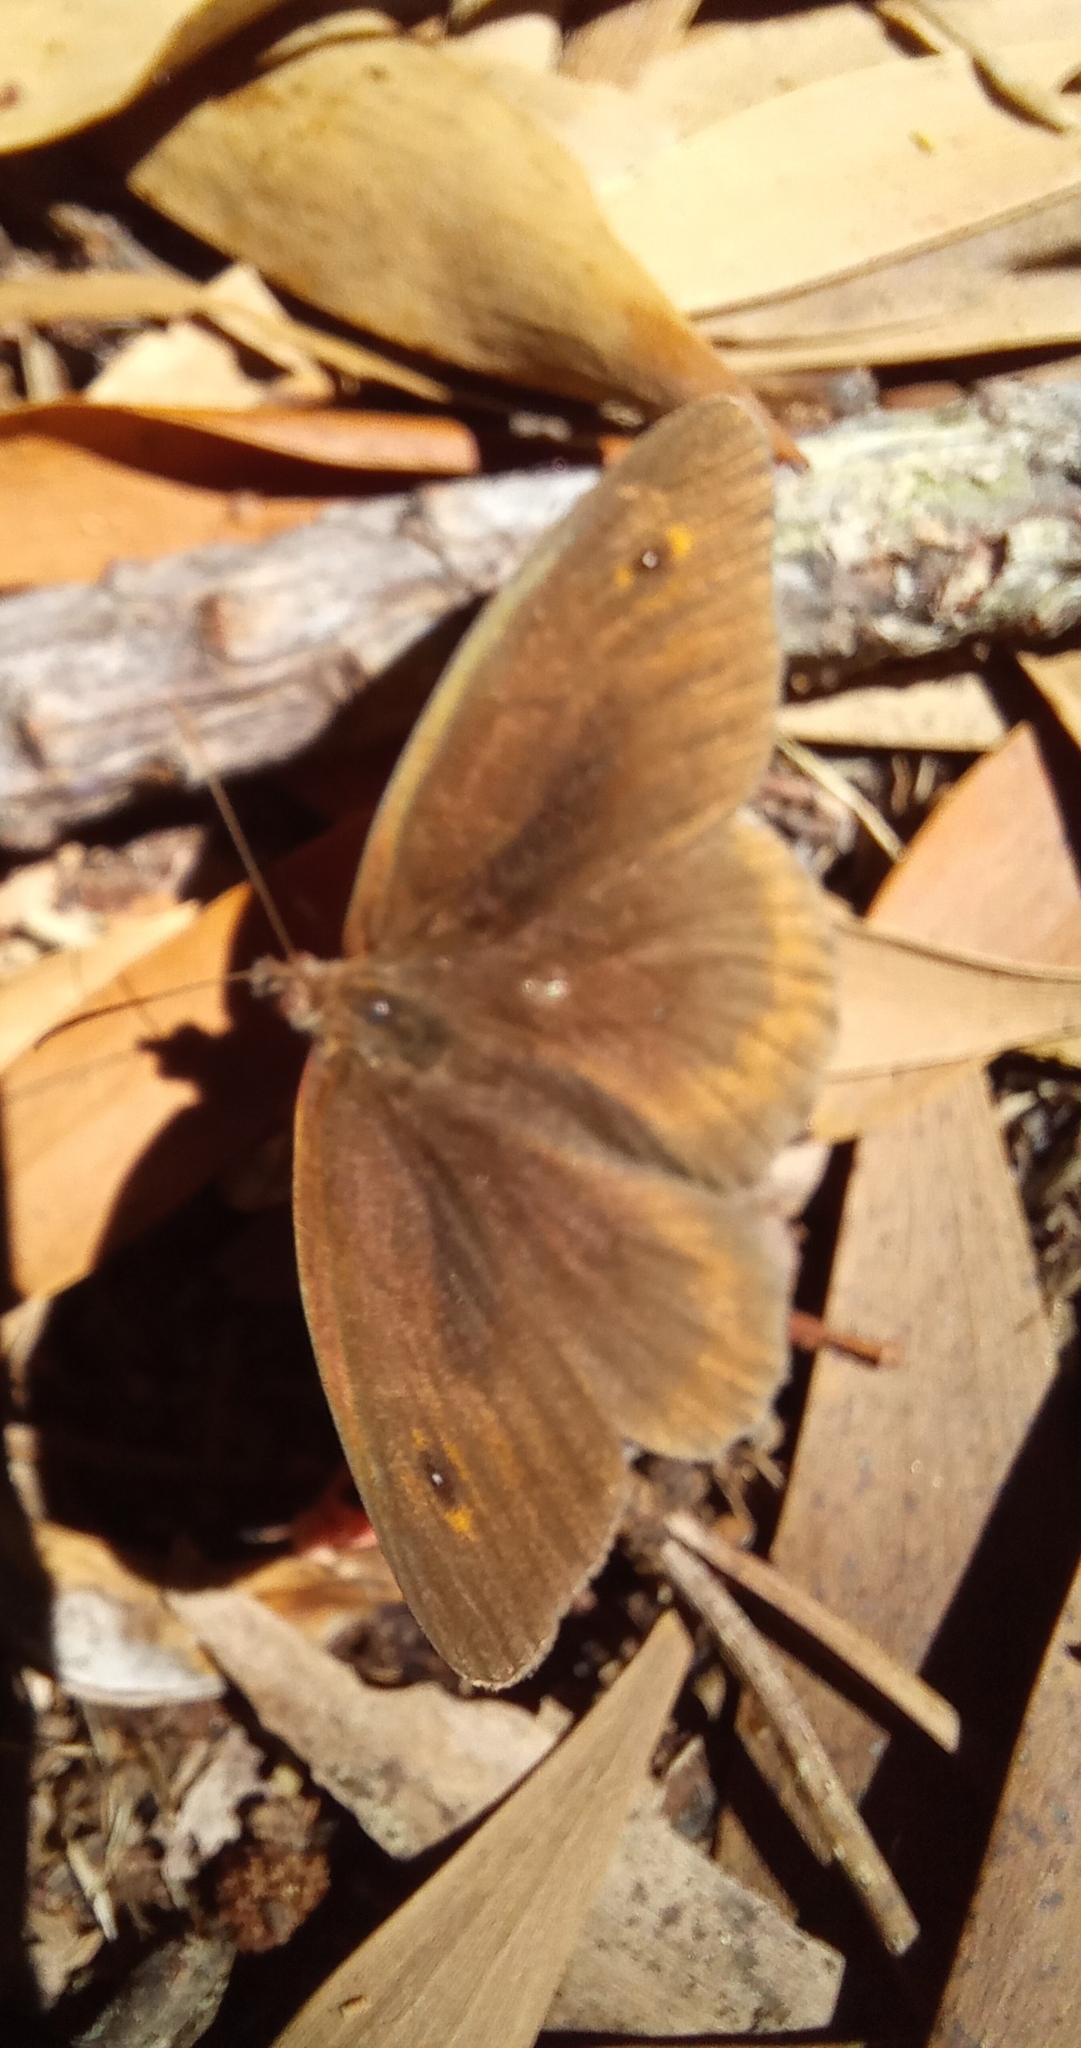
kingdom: Animalia
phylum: Arthropoda
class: Insecta
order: Lepidoptera
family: Nymphalidae
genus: Maniola
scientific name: Maniola jurtina
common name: Meadow brown
